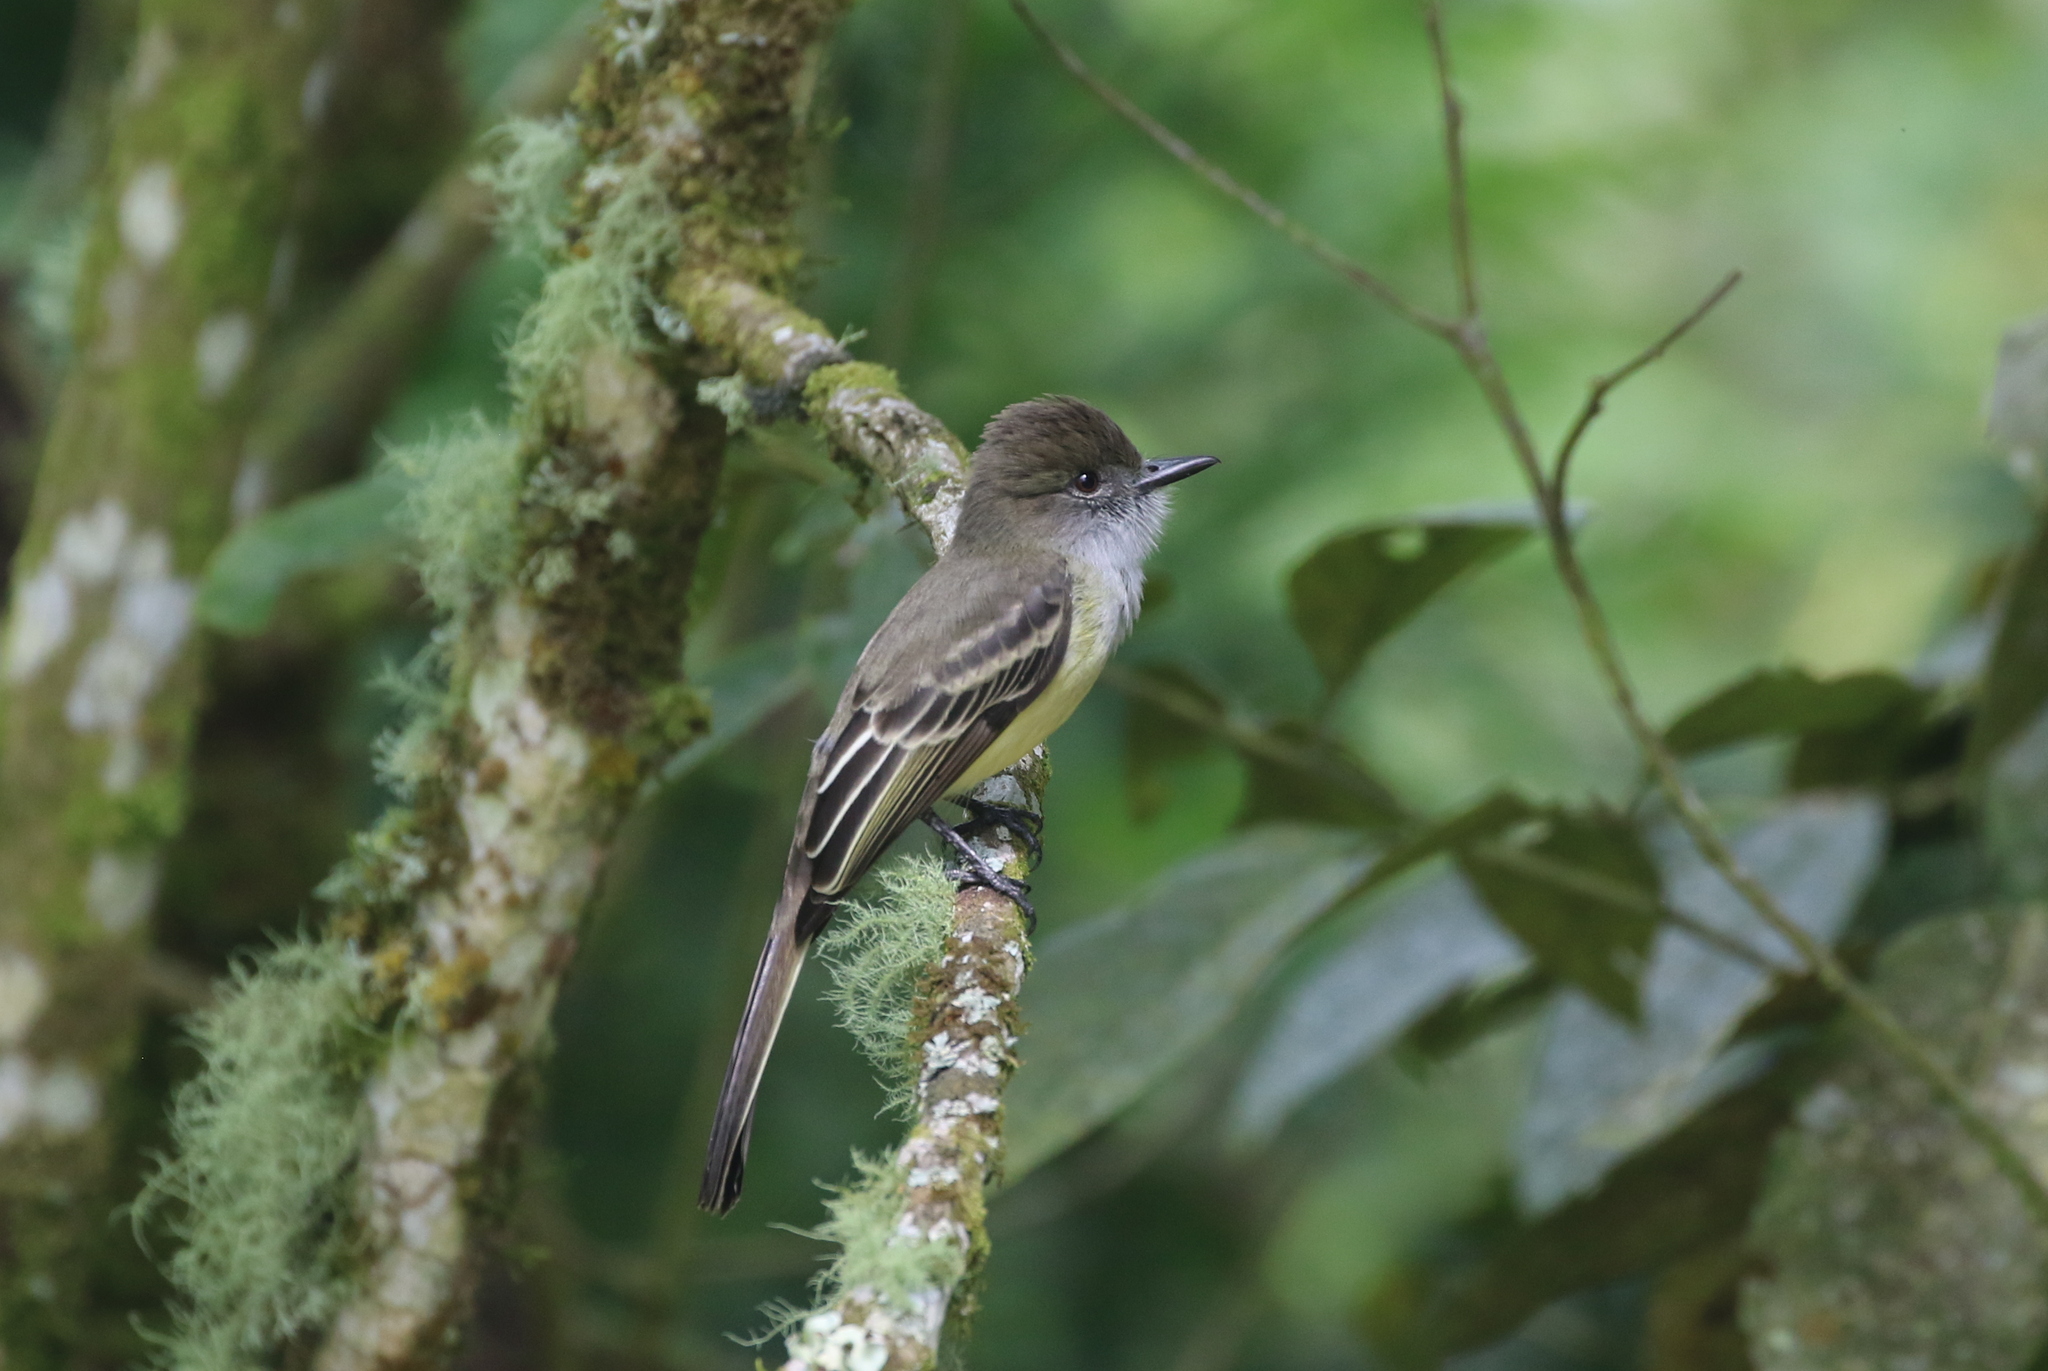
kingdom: Animalia
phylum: Chordata
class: Aves
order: Passeriformes
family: Tyrannidae
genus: Myiarchus
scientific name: Myiarchus cephalotes
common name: Pale-edged flycatcher
